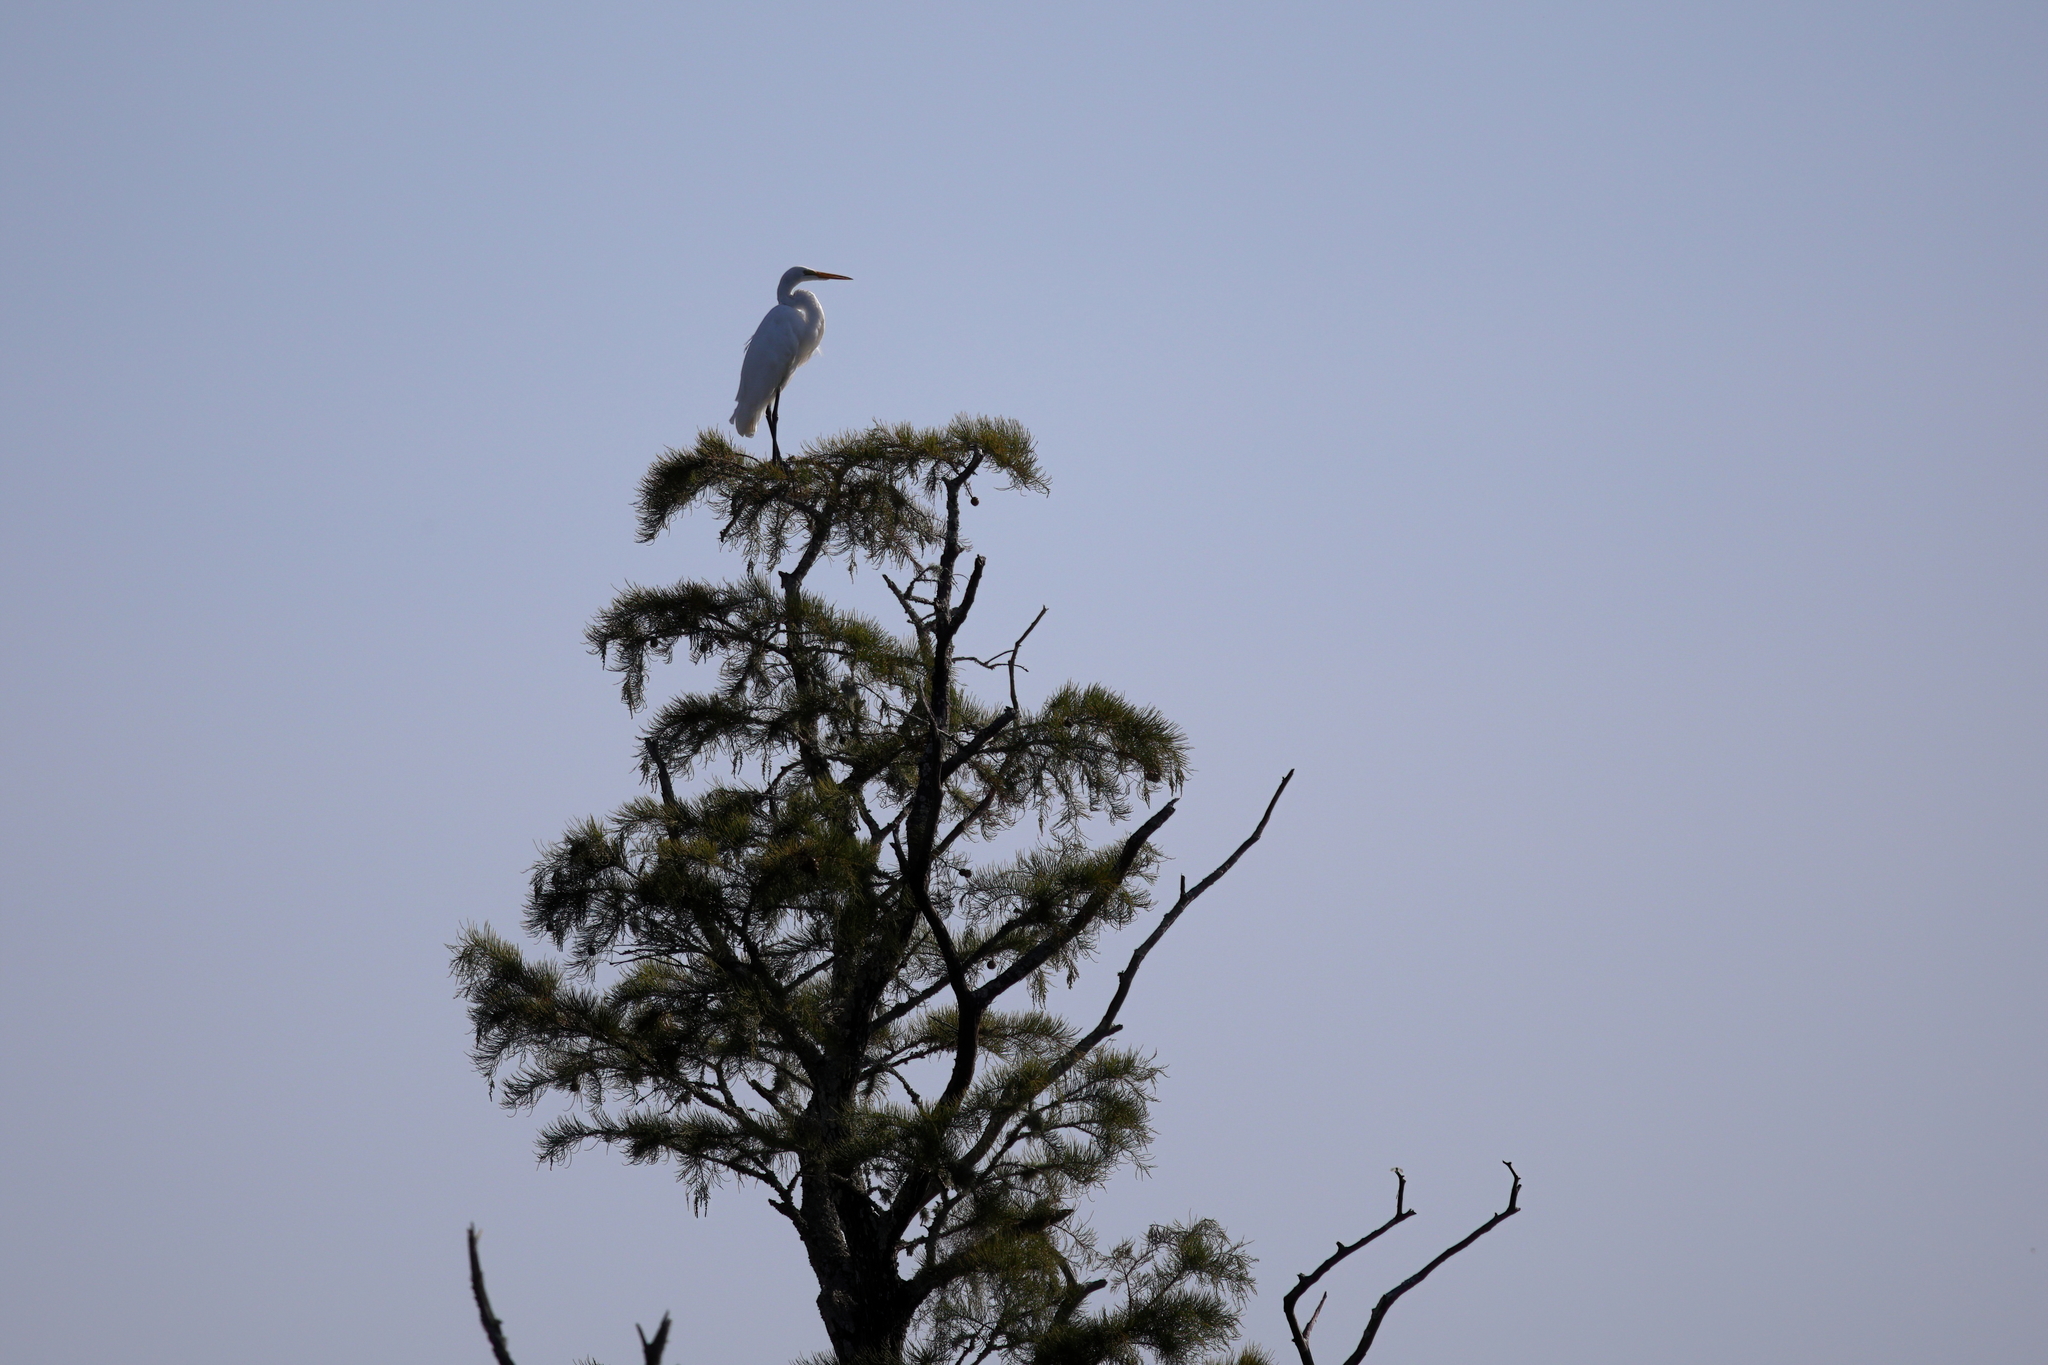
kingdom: Animalia
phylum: Chordata
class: Aves
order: Pelecaniformes
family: Ardeidae
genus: Ardea
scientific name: Ardea alba
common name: Great egret
